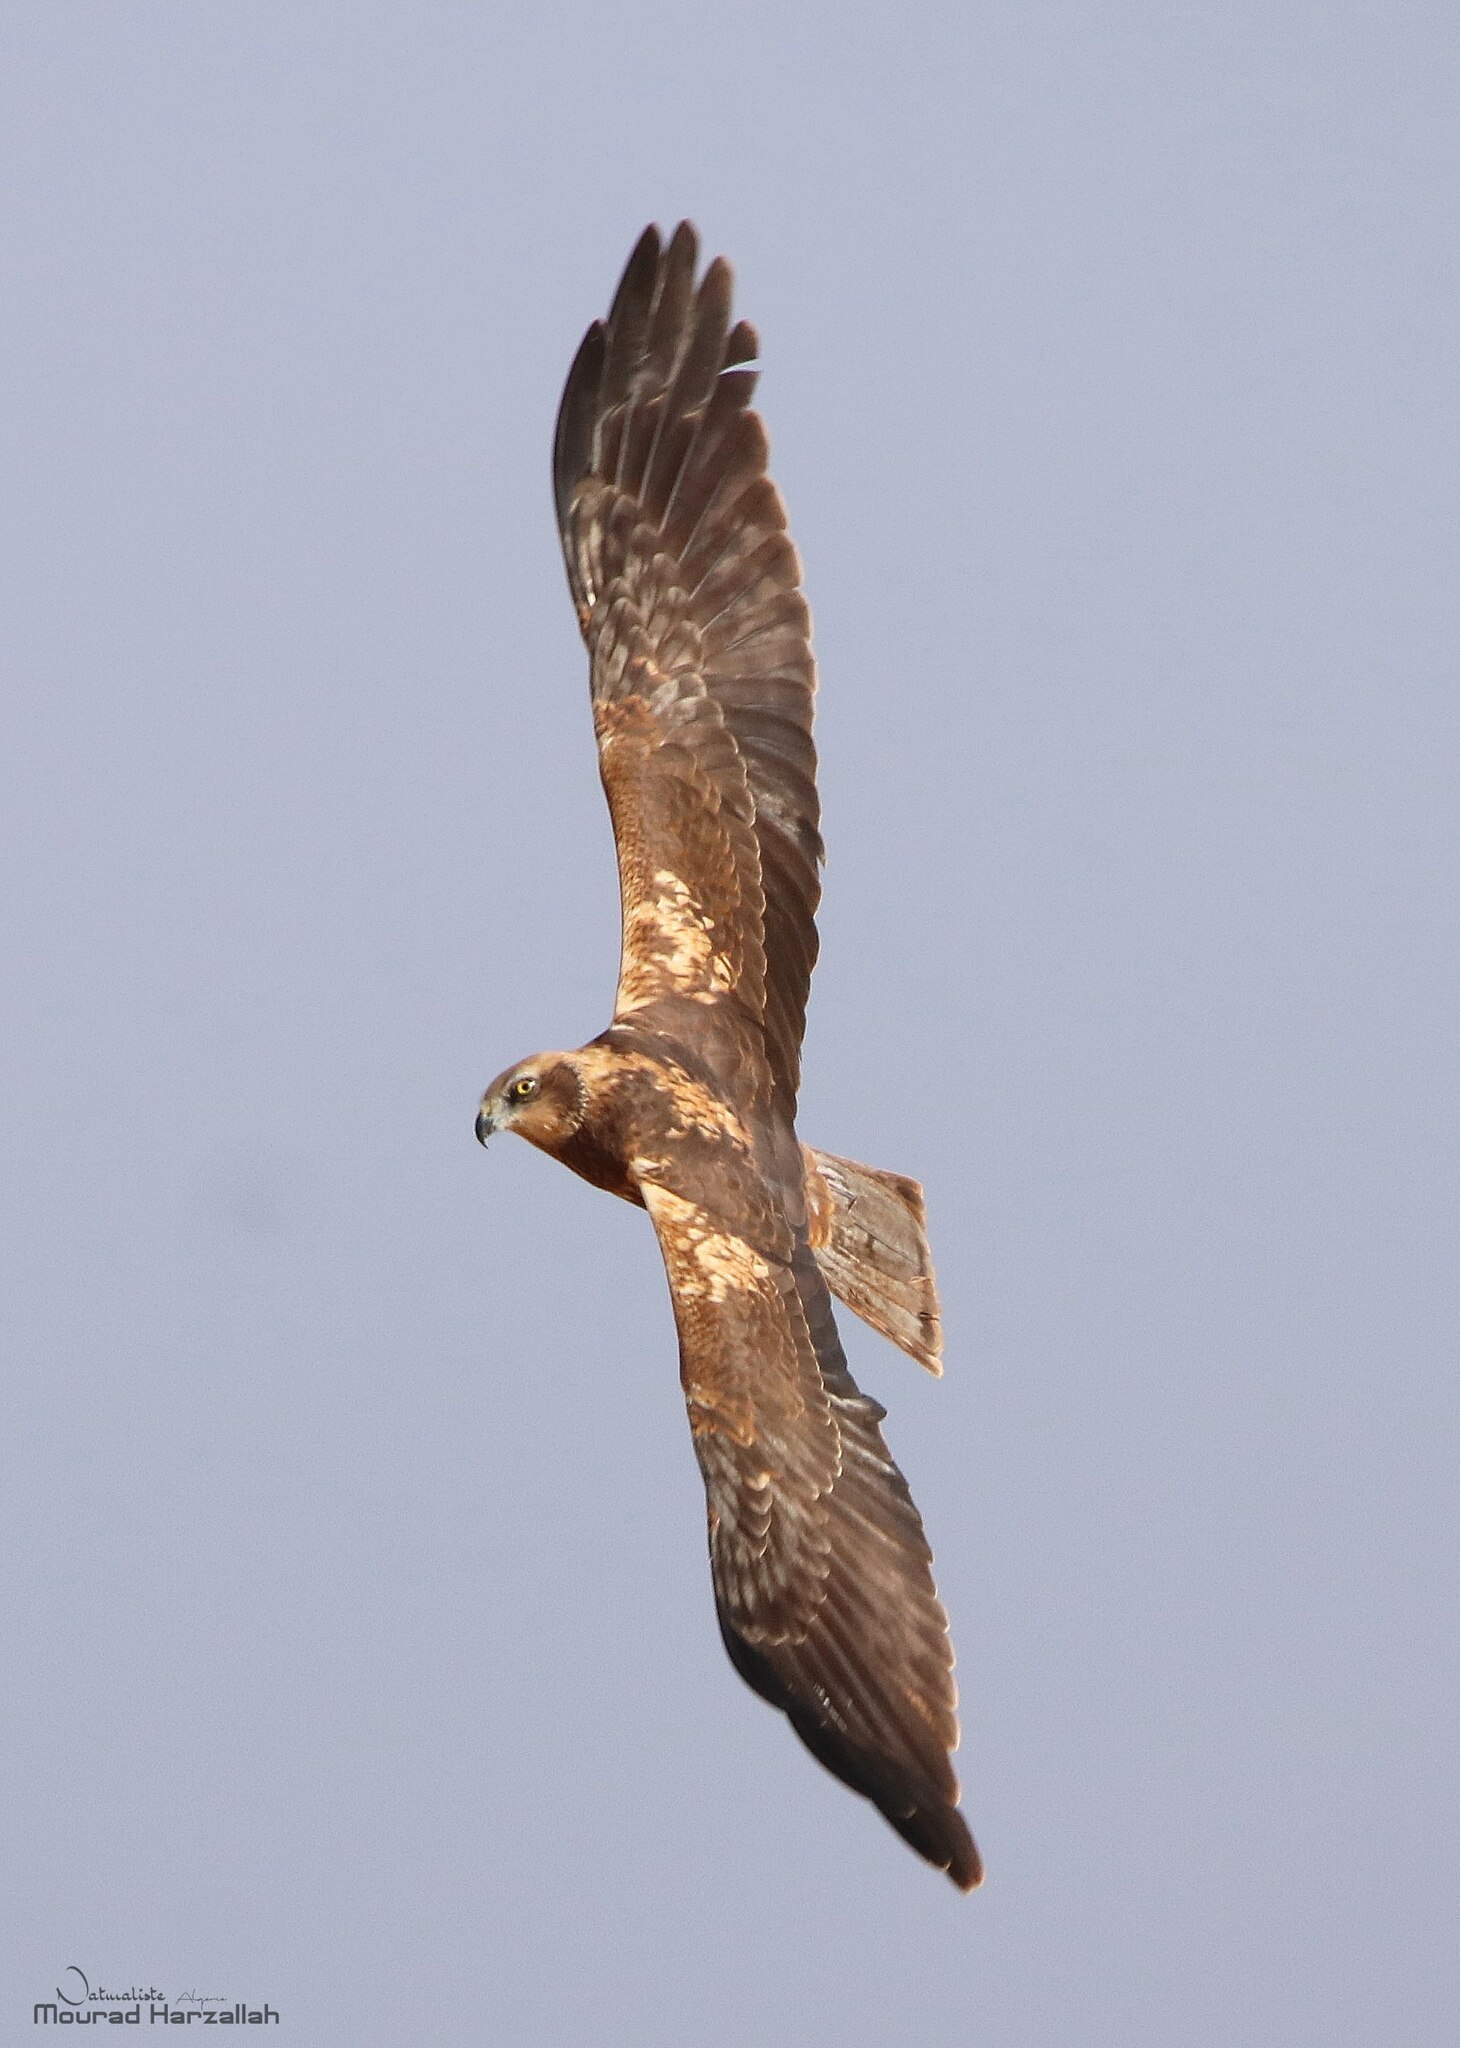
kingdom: Animalia
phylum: Chordata
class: Aves
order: Accipitriformes
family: Accipitridae
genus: Circus
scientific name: Circus aeruginosus
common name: Western marsh harrier
